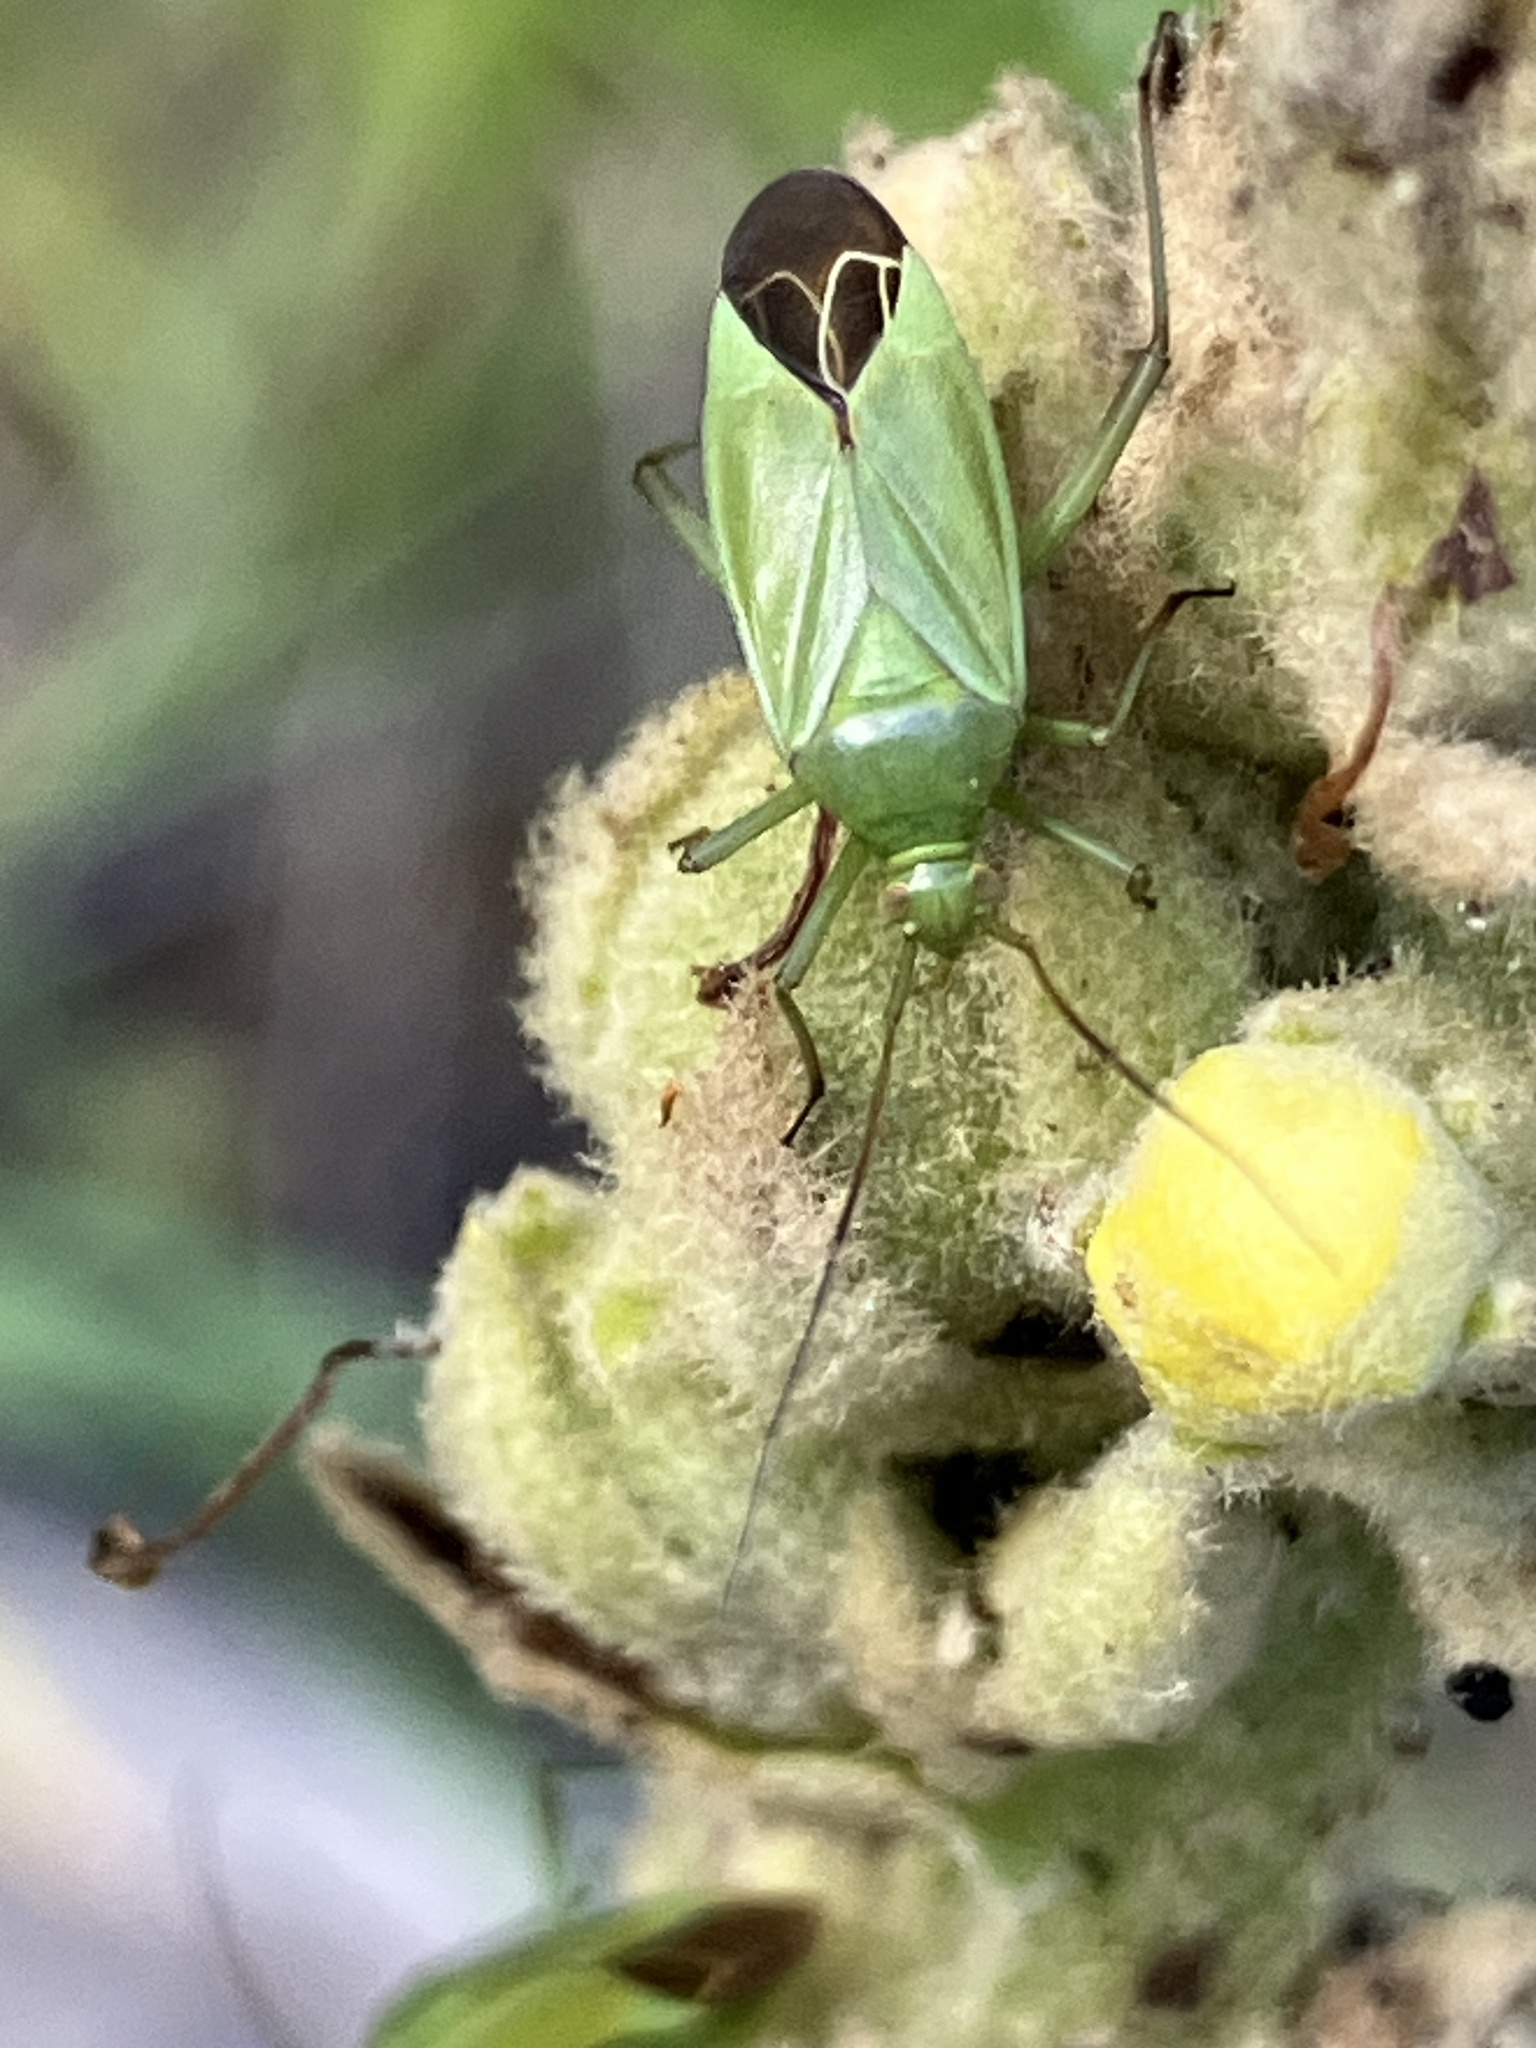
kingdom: Animalia
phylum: Arthropoda
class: Insecta
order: Hemiptera
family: Miridae
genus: Calocoris
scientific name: Calocoris affinis
